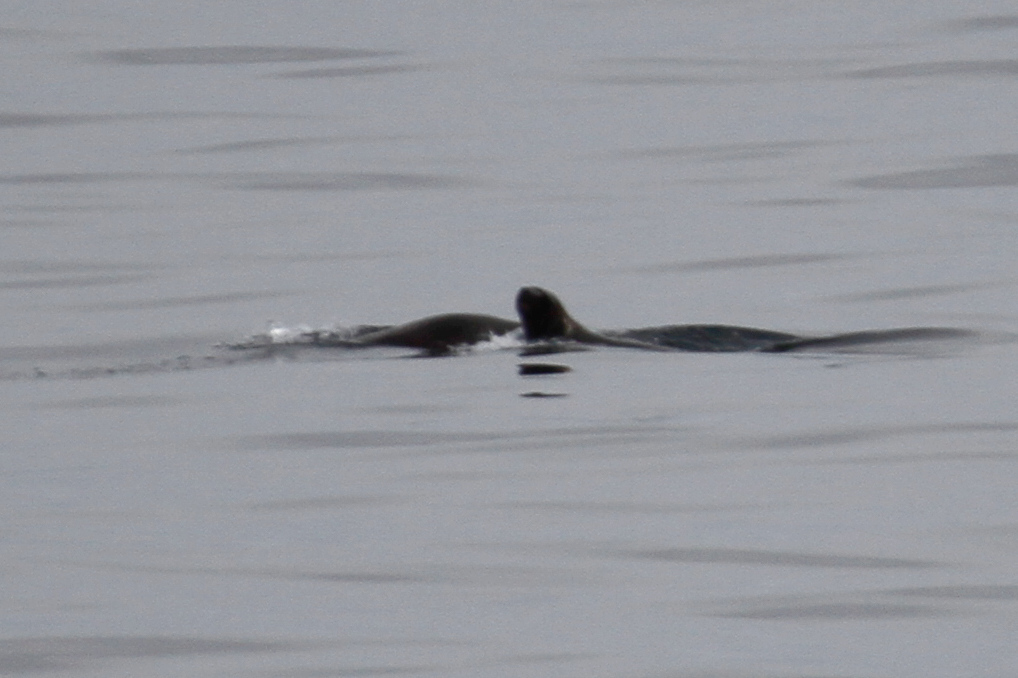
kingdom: Animalia
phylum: Chordata
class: Mammalia
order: Carnivora
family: Otariidae
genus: Otaria
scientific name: Otaria byronia
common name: South american sea lion
